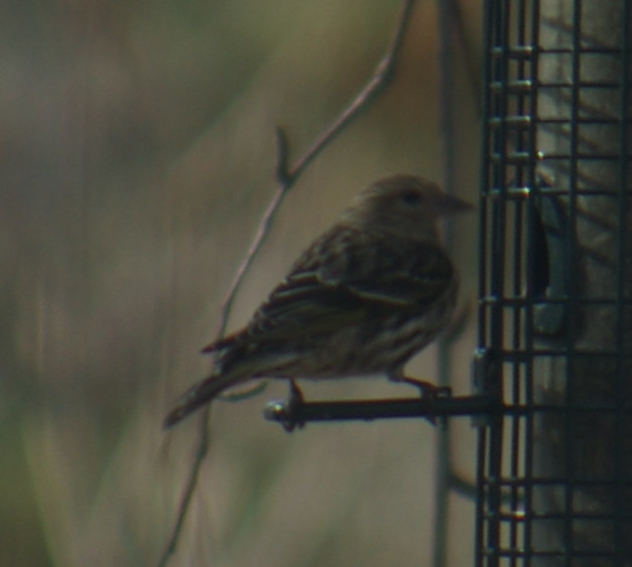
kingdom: Animalia
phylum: Chordata
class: Aves
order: Passeriformes
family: Fringillidae
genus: Spinus
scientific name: Spinus pinus
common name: Pine siskin
